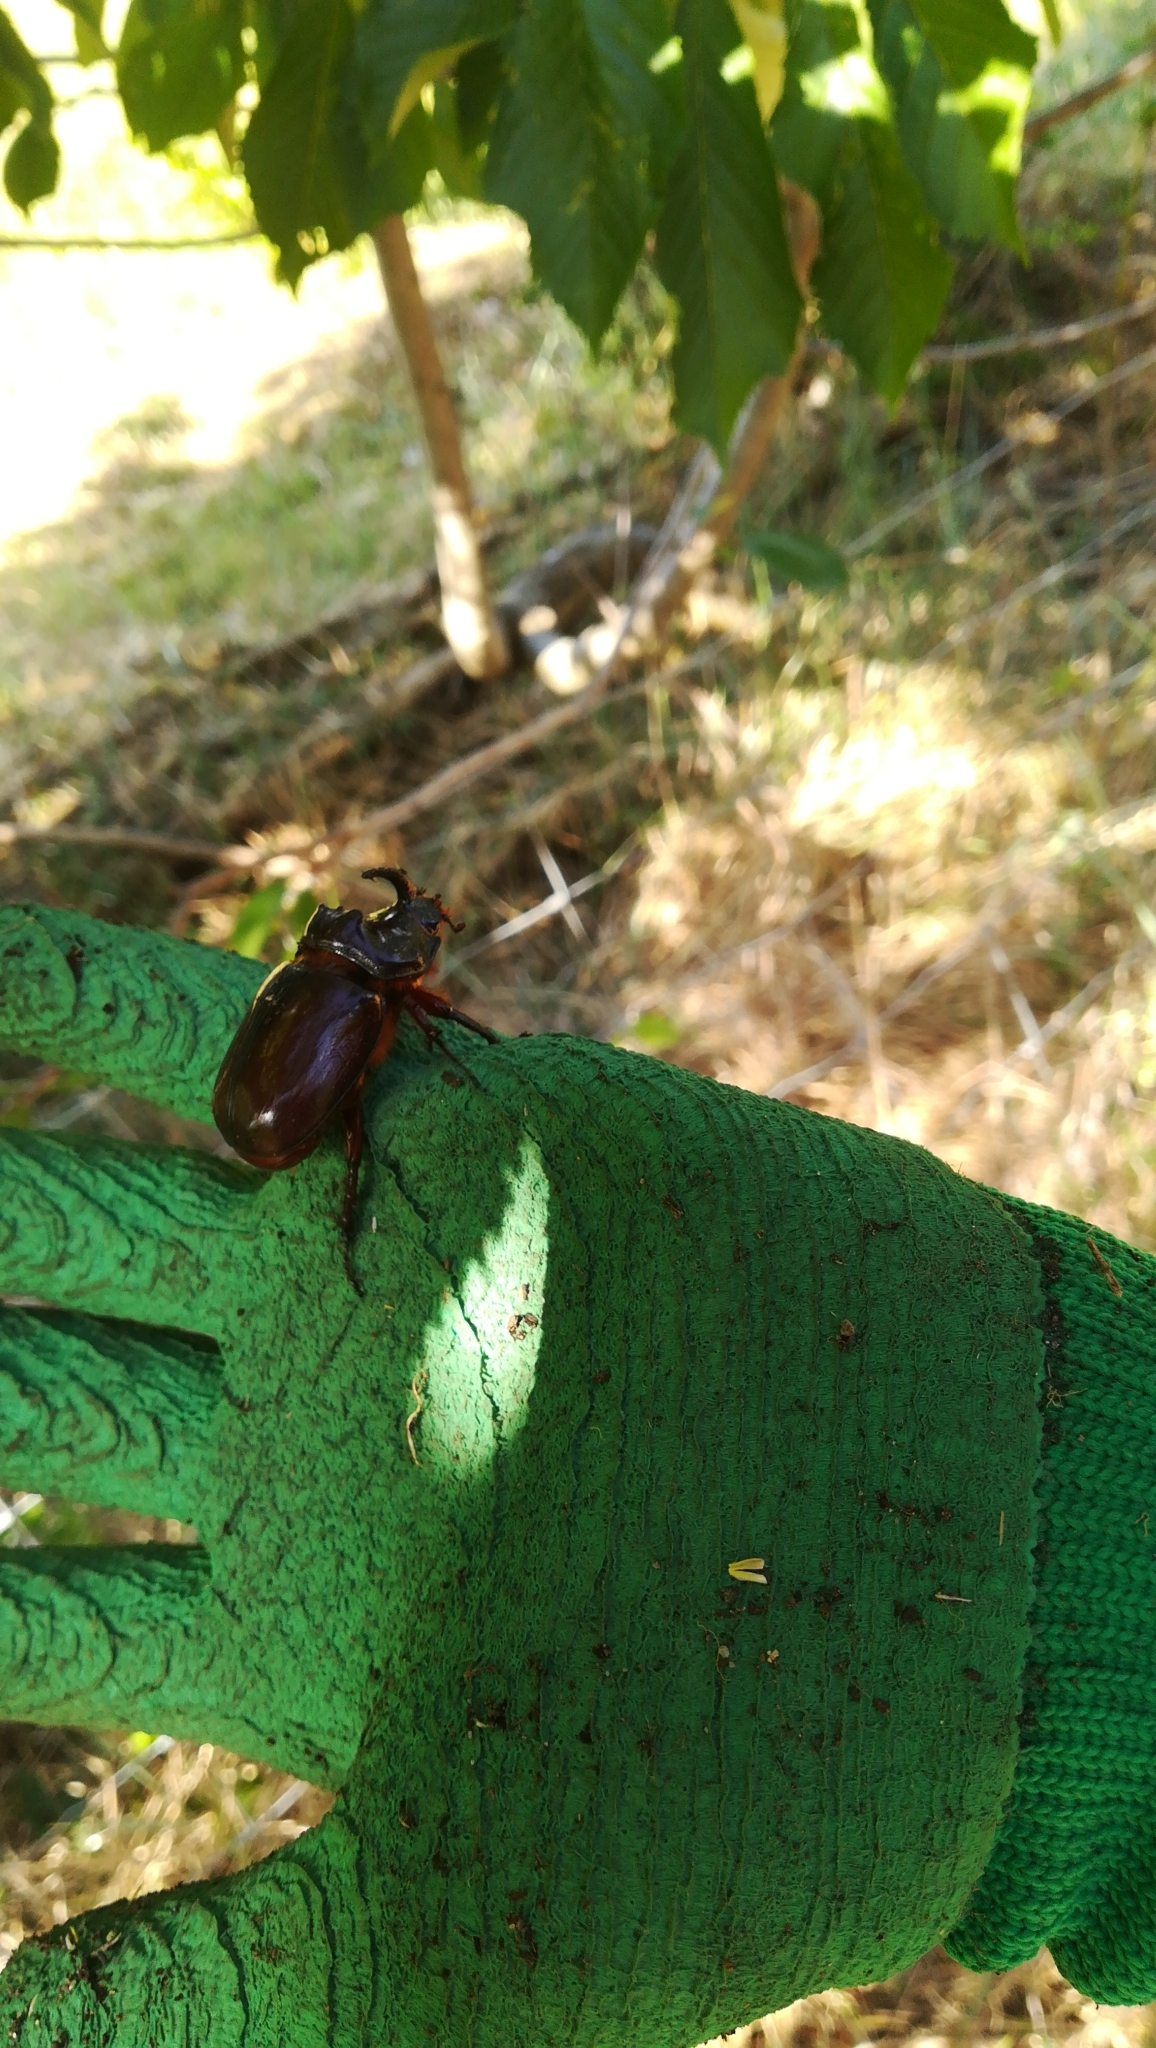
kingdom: Animalia
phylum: Arthropoda
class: Insecta
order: Coleoptera
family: Scarabaeidae
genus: Oryctes
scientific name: Oryctes nasicornis
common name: European rhinoceros beetle
